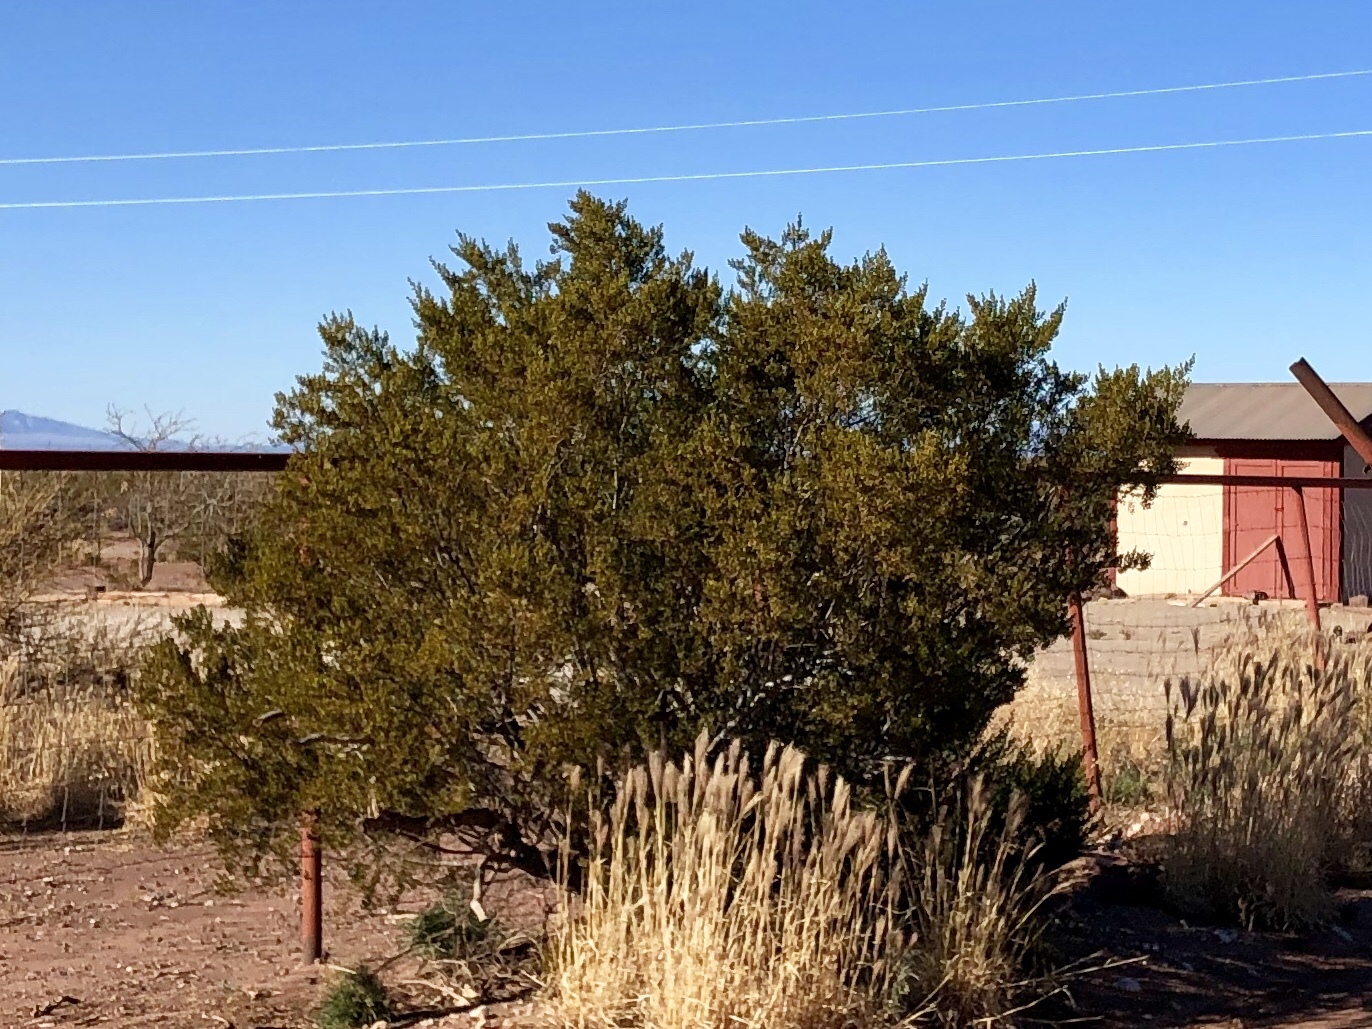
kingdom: Plantae
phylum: Tracheophyta
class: Magnoliopsida
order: Zygophyllales
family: Zygophyllaceae
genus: Larrea
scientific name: Larrea tridentata
